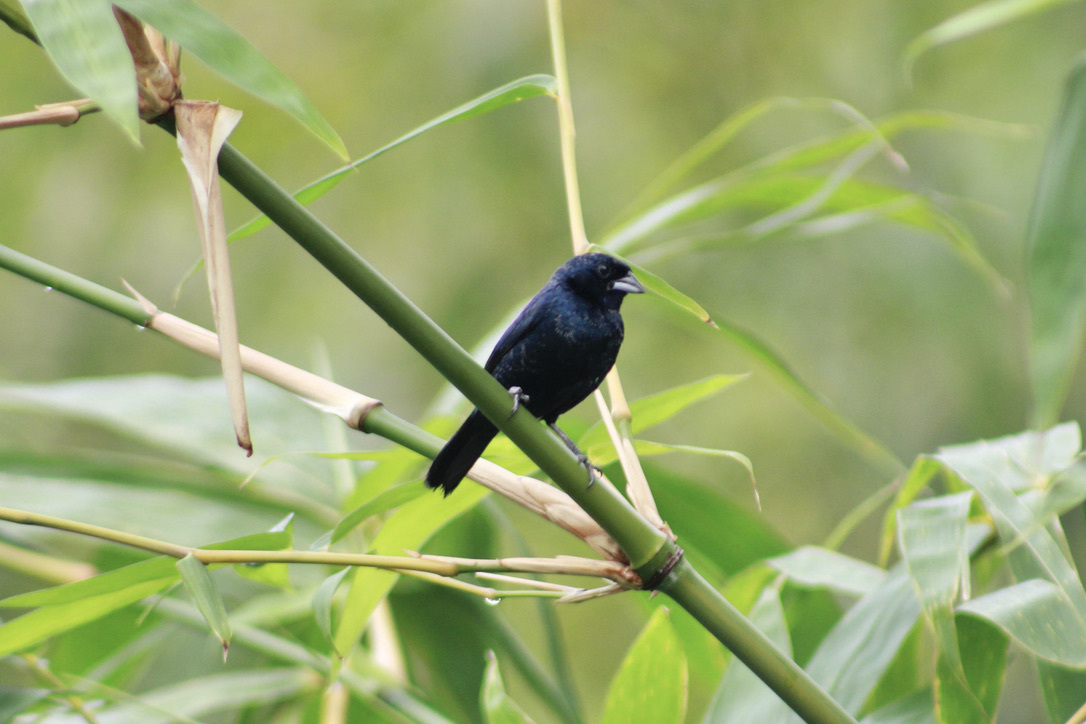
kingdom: Animalia
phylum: Chordata
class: Aves
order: Passeriformes
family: Thraupidae
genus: Volatinia
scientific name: Volatinia jacarina
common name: Blue-black grassquit
